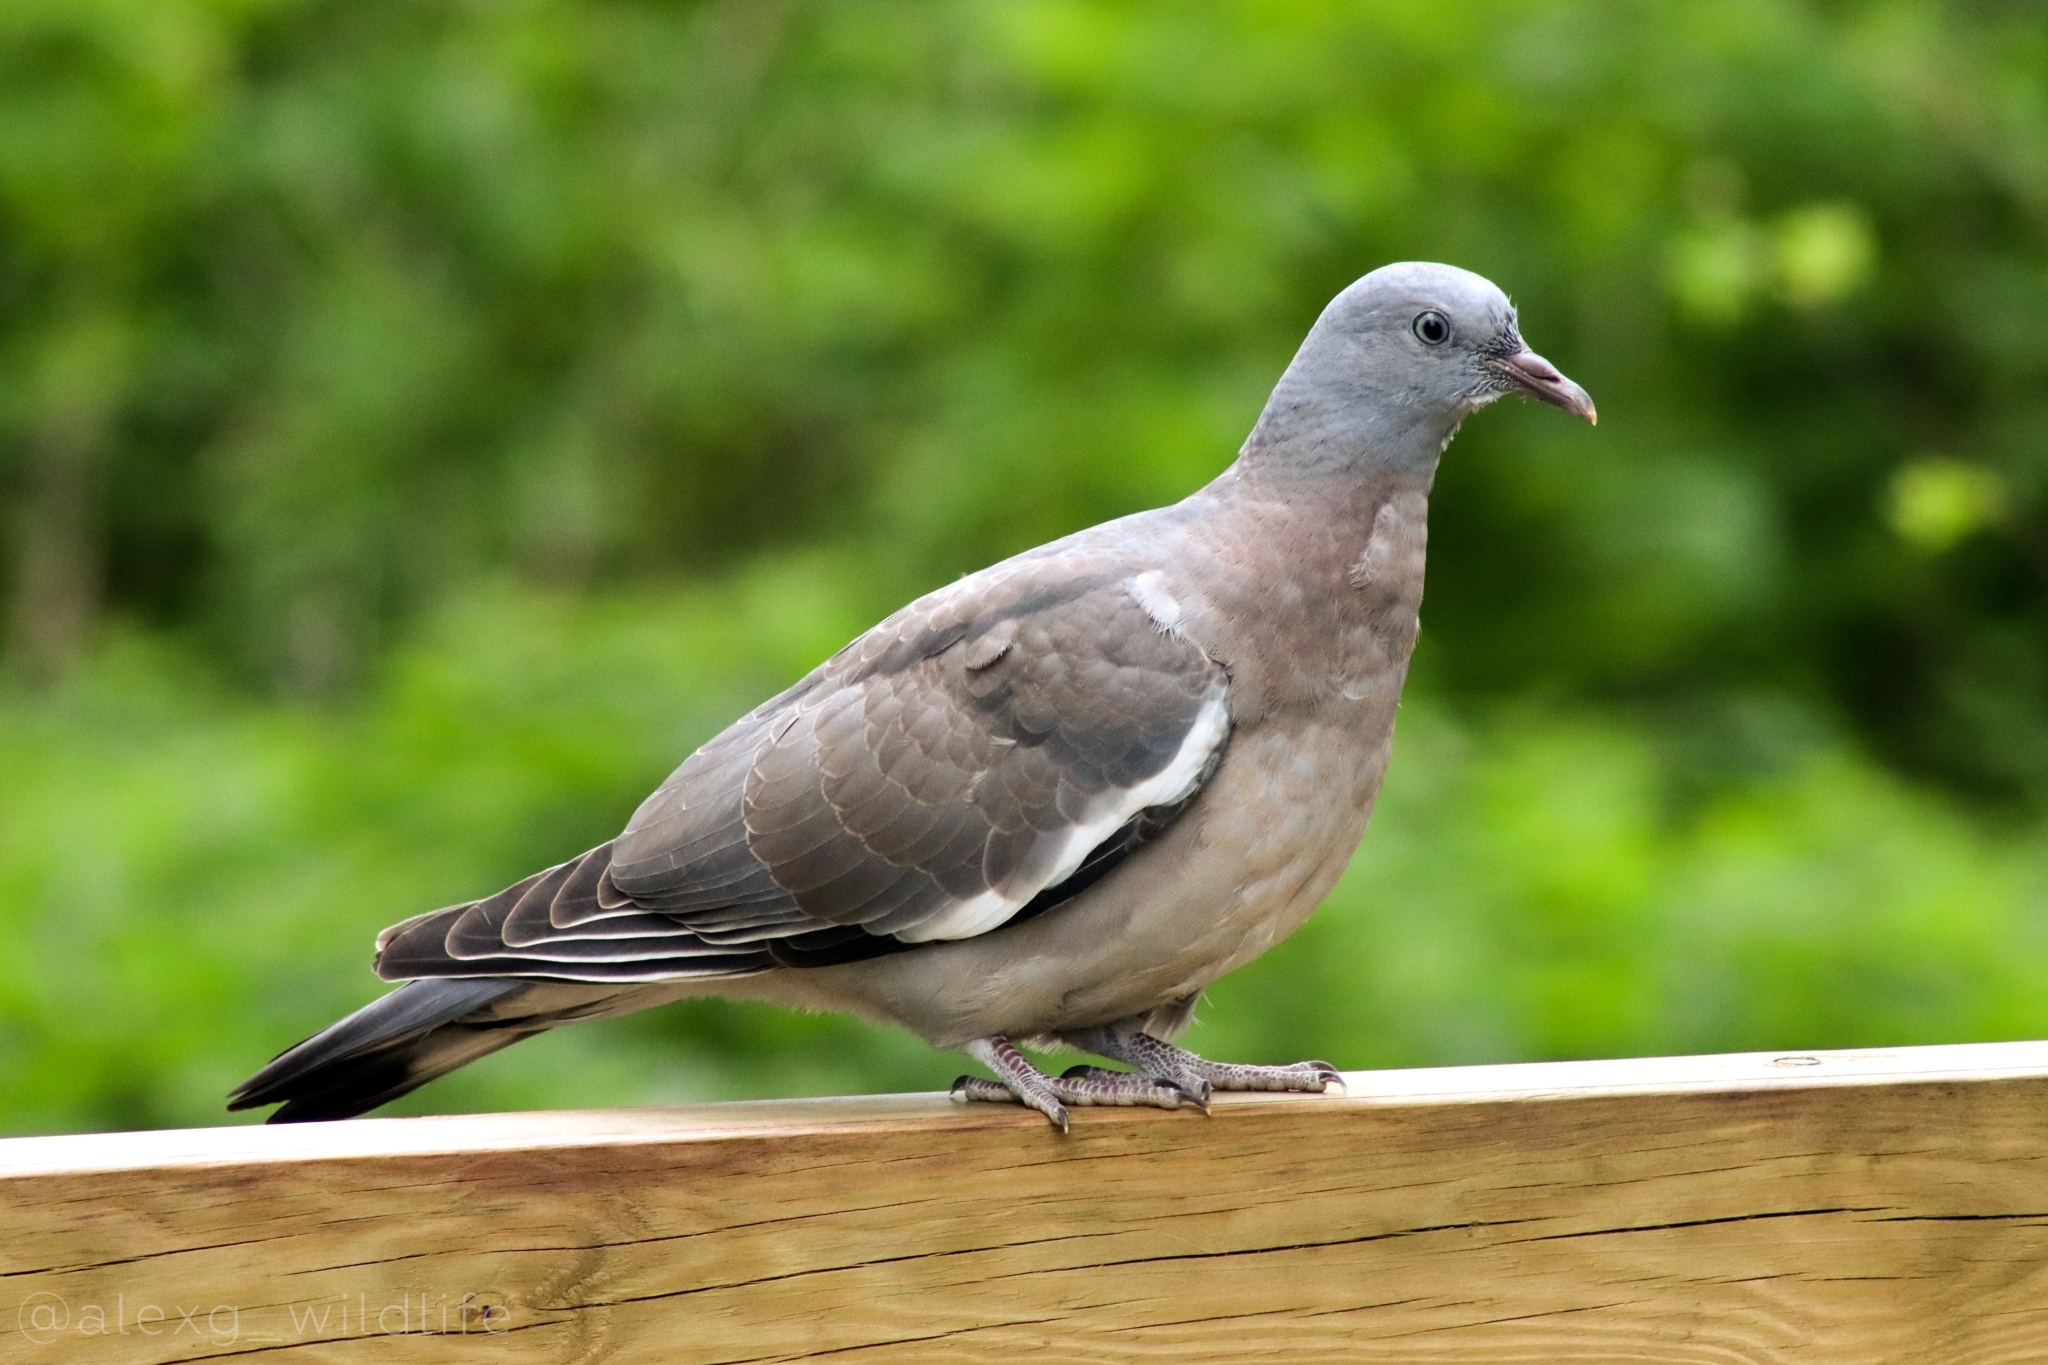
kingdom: Animalia
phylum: Chordata
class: Aves
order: Columbiformes
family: Columbidae
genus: Columba
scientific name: Columba palumbus
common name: Common wood pigeon
